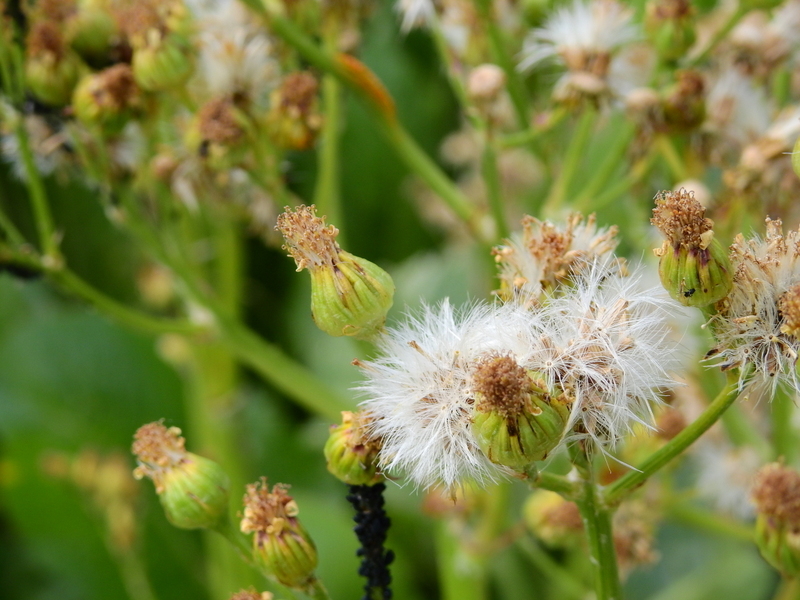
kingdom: Plantae
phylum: Tracheophyta
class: Magnoliopsida
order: Asterales
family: Asteraceae
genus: Senecio
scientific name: Senecio fistulosus
